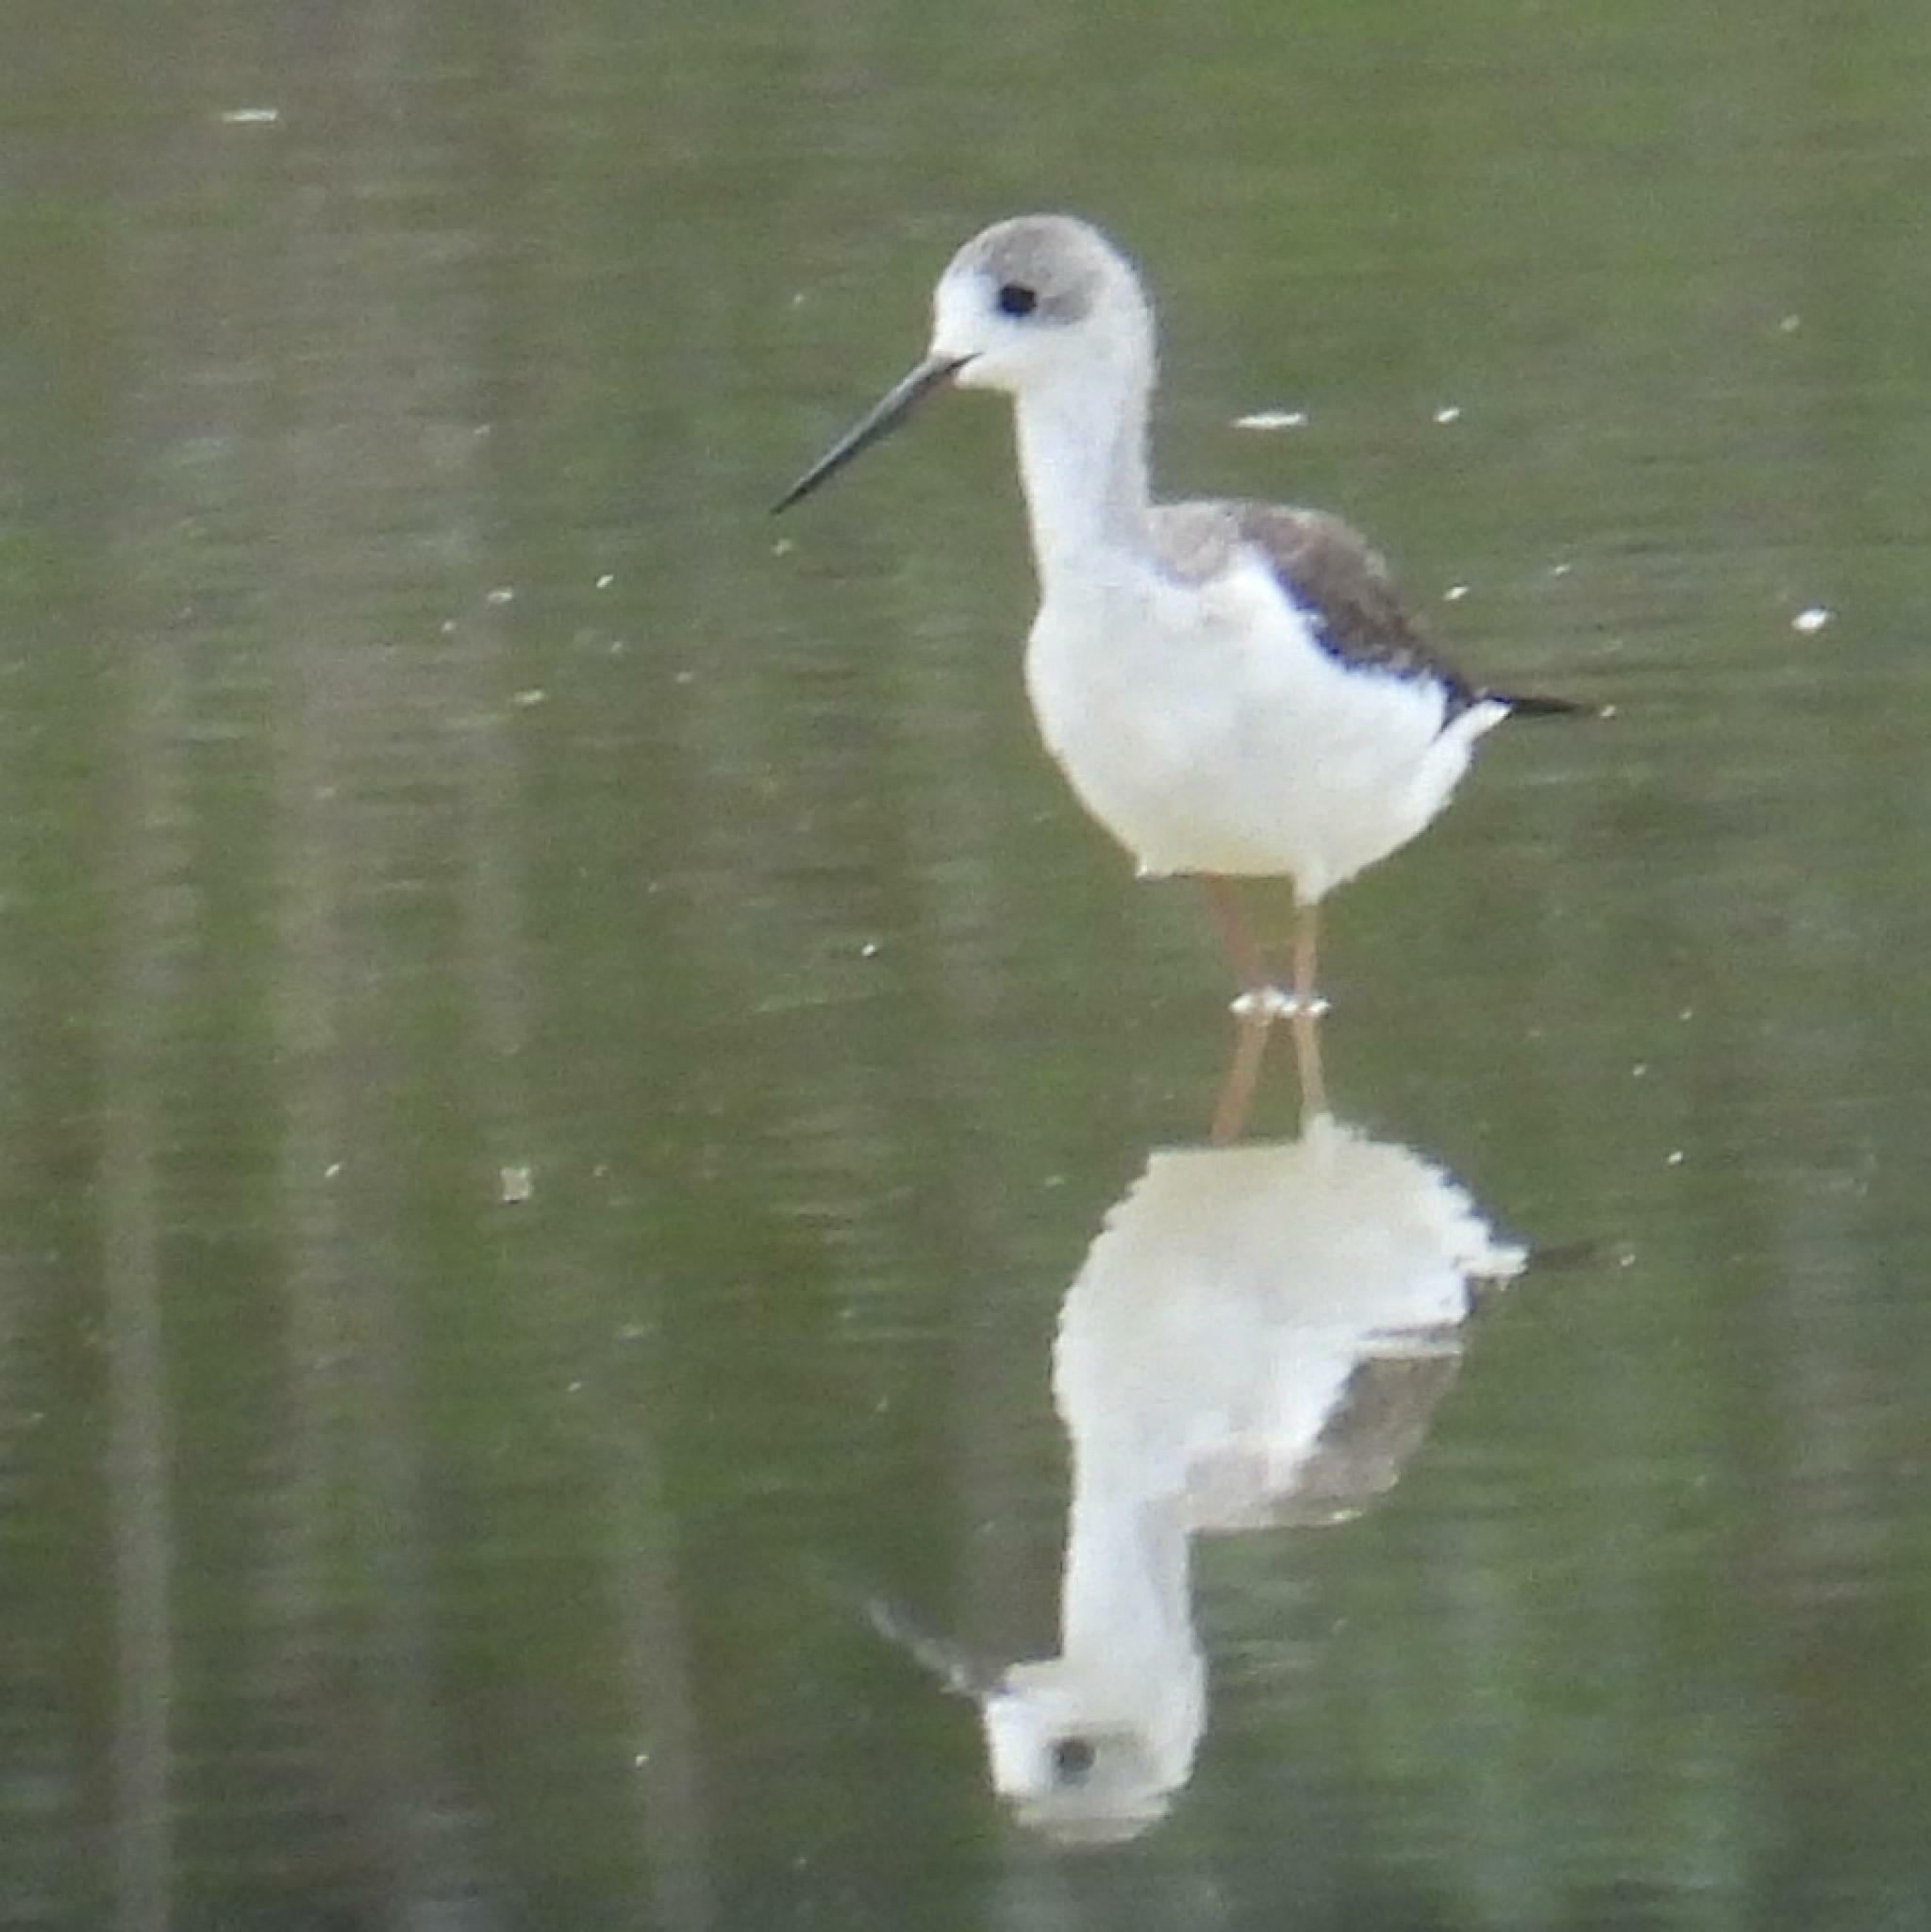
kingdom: Animalia
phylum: Chordata
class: Aves
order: Charadriiformes
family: Recurvirostridae
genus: Himantopus
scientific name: Himantopus himantopus
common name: Black-winged stilt
